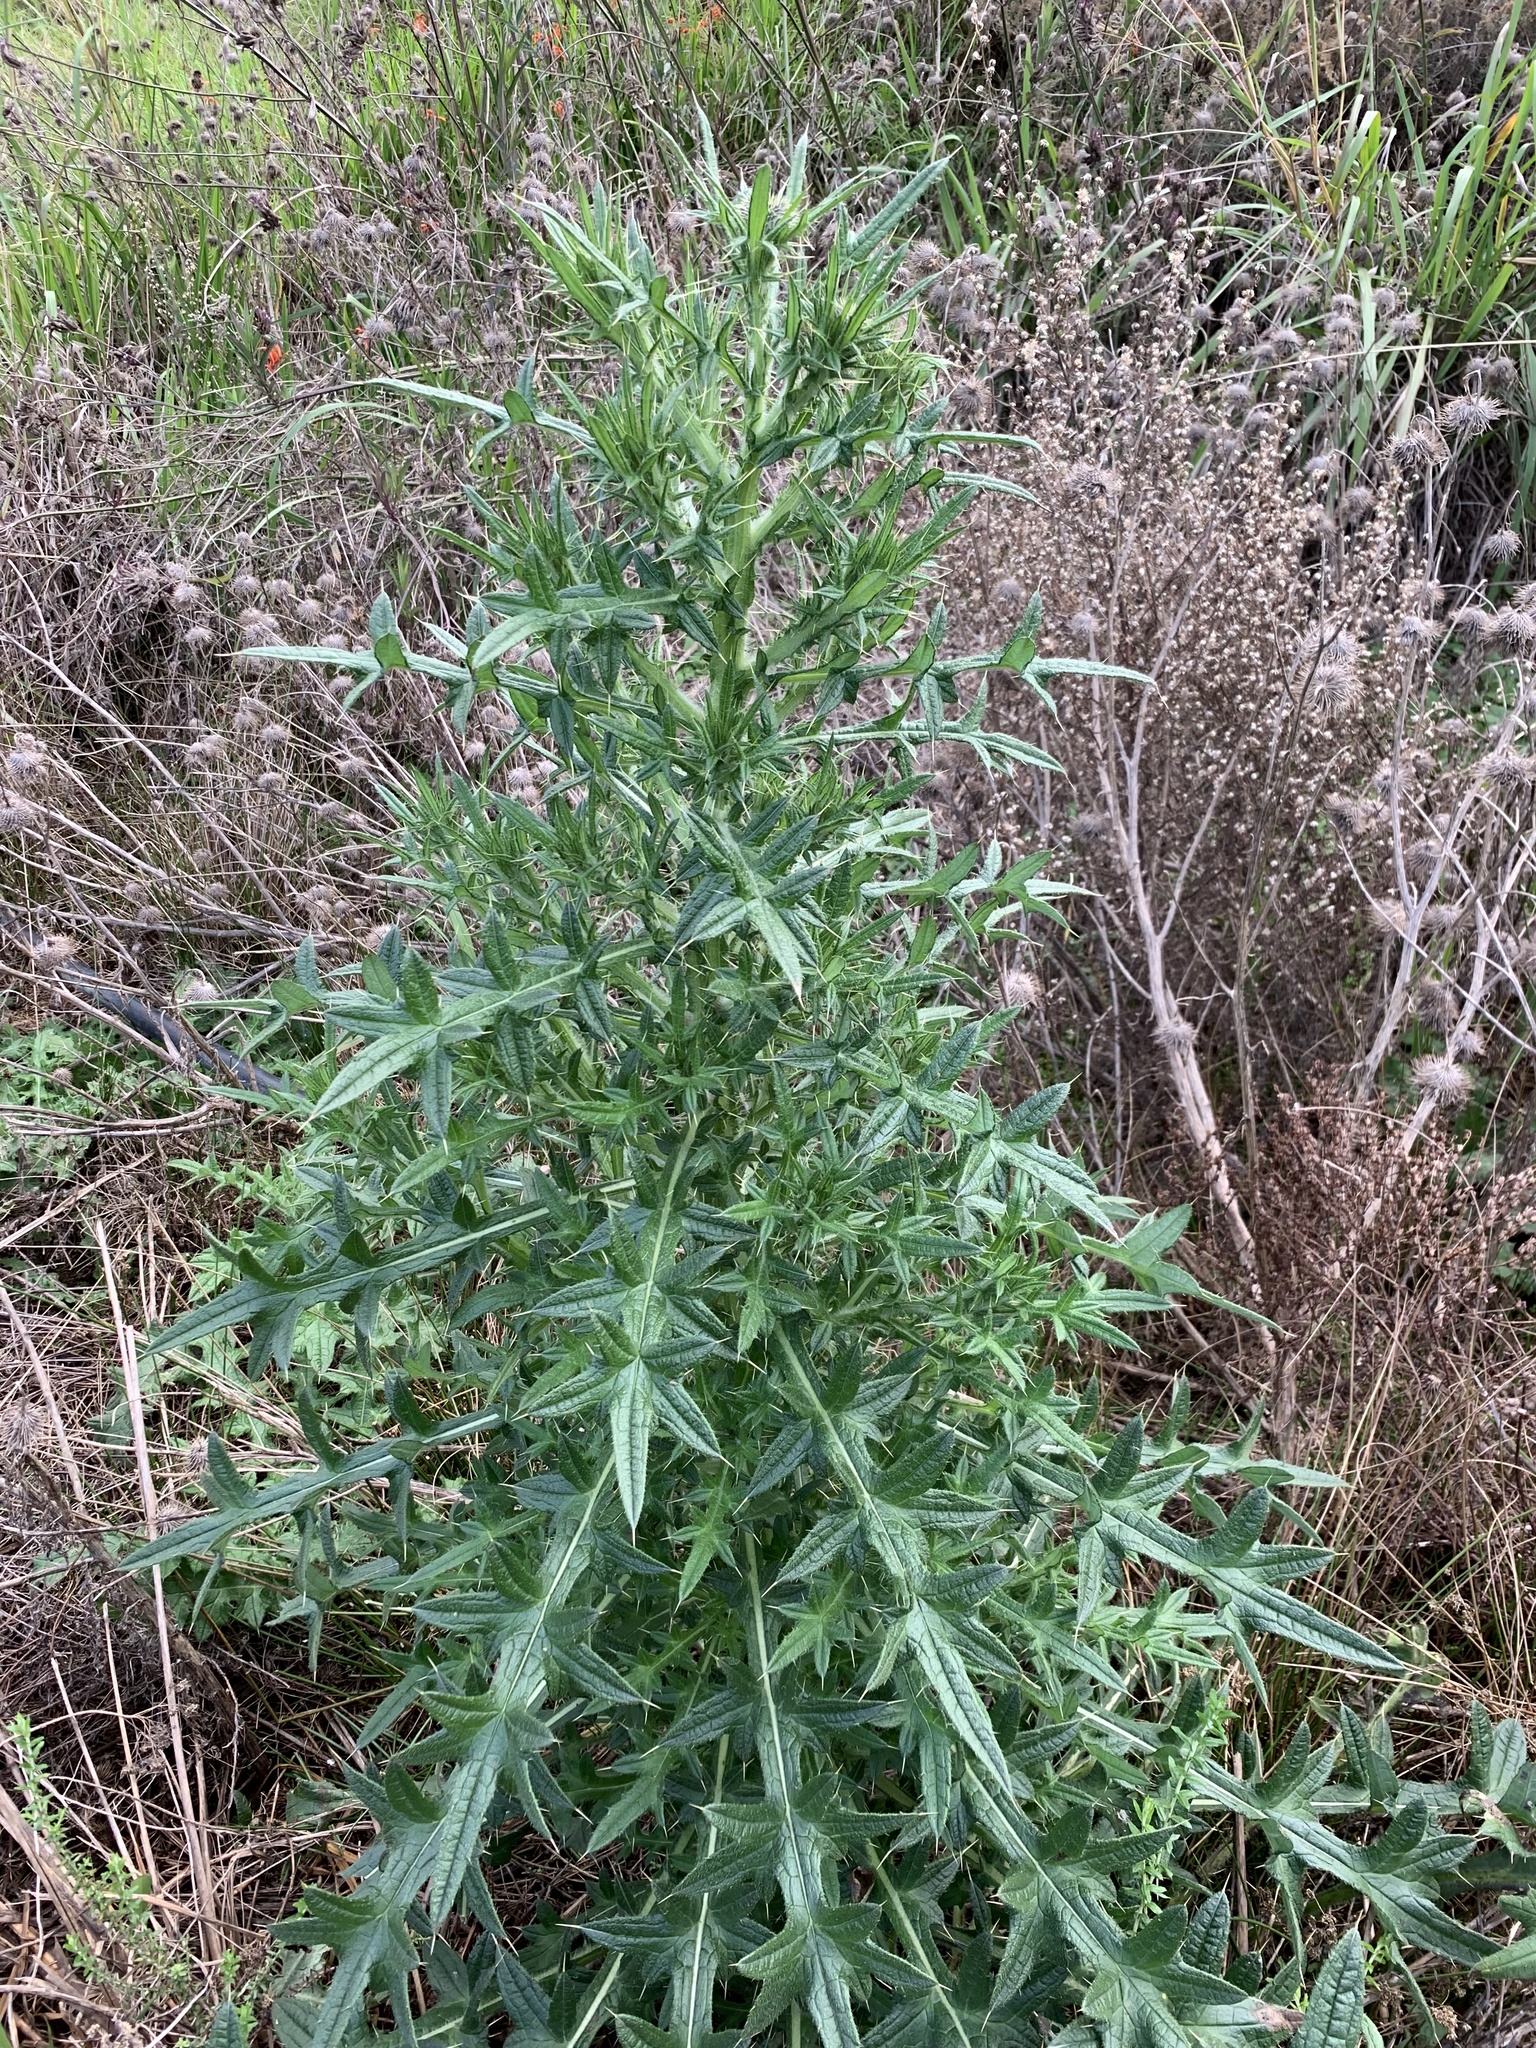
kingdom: Plantae
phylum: Tracheophyta
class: Magnoliopsida
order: Asterales
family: Asteraceae
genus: Cirsium
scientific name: Cirsium vulgare
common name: Bull thistle
